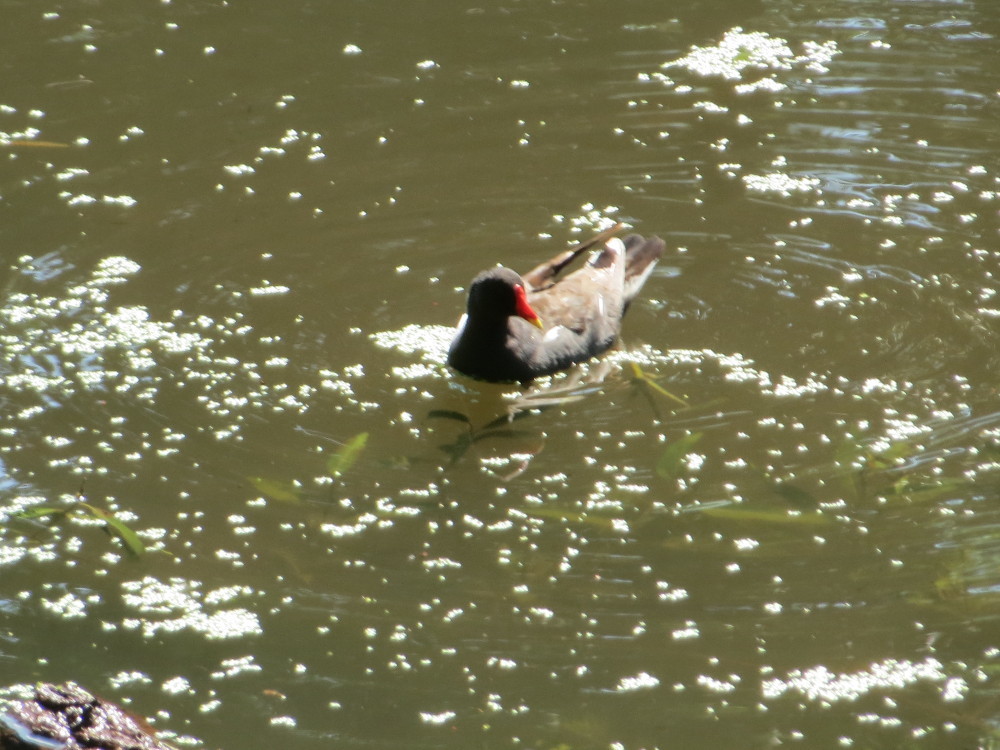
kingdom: Animalia
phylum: Chordata
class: Aves
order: Gruiformes
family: Rallidae
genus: Gallinula
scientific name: Gallinula chloropus
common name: Common moorhen
